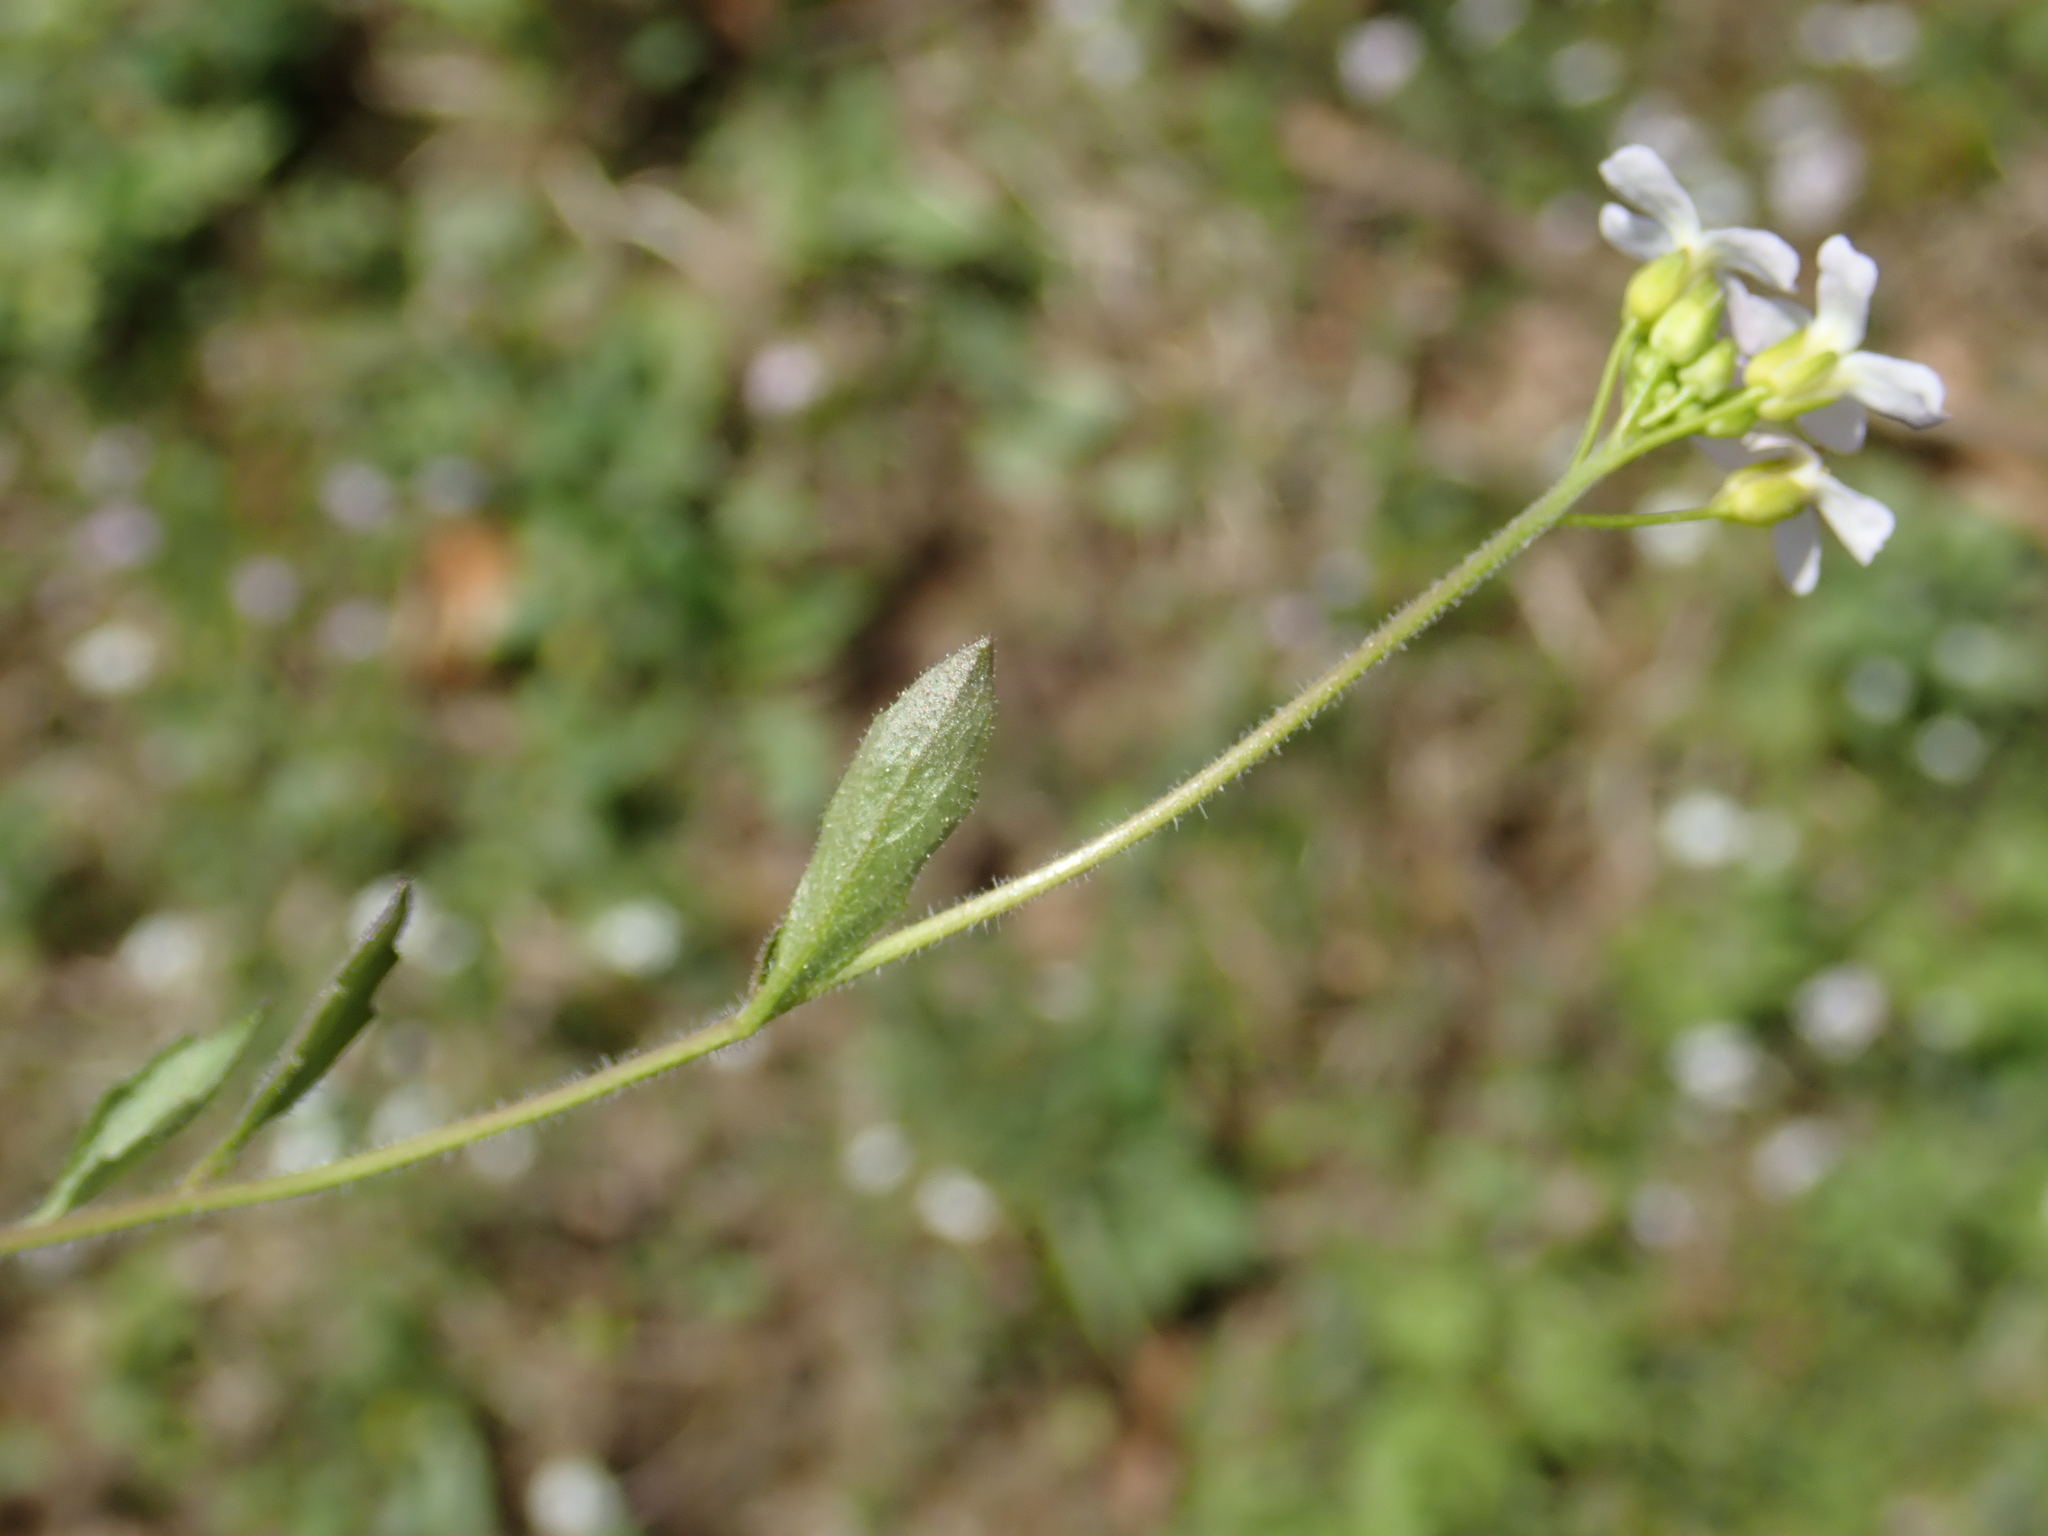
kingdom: Plantae
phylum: Tracheophyta
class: Magnoliopsida
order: Brassicales
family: Brassicaceae
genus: Arabidopsis
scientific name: Arabidopsis halleri
